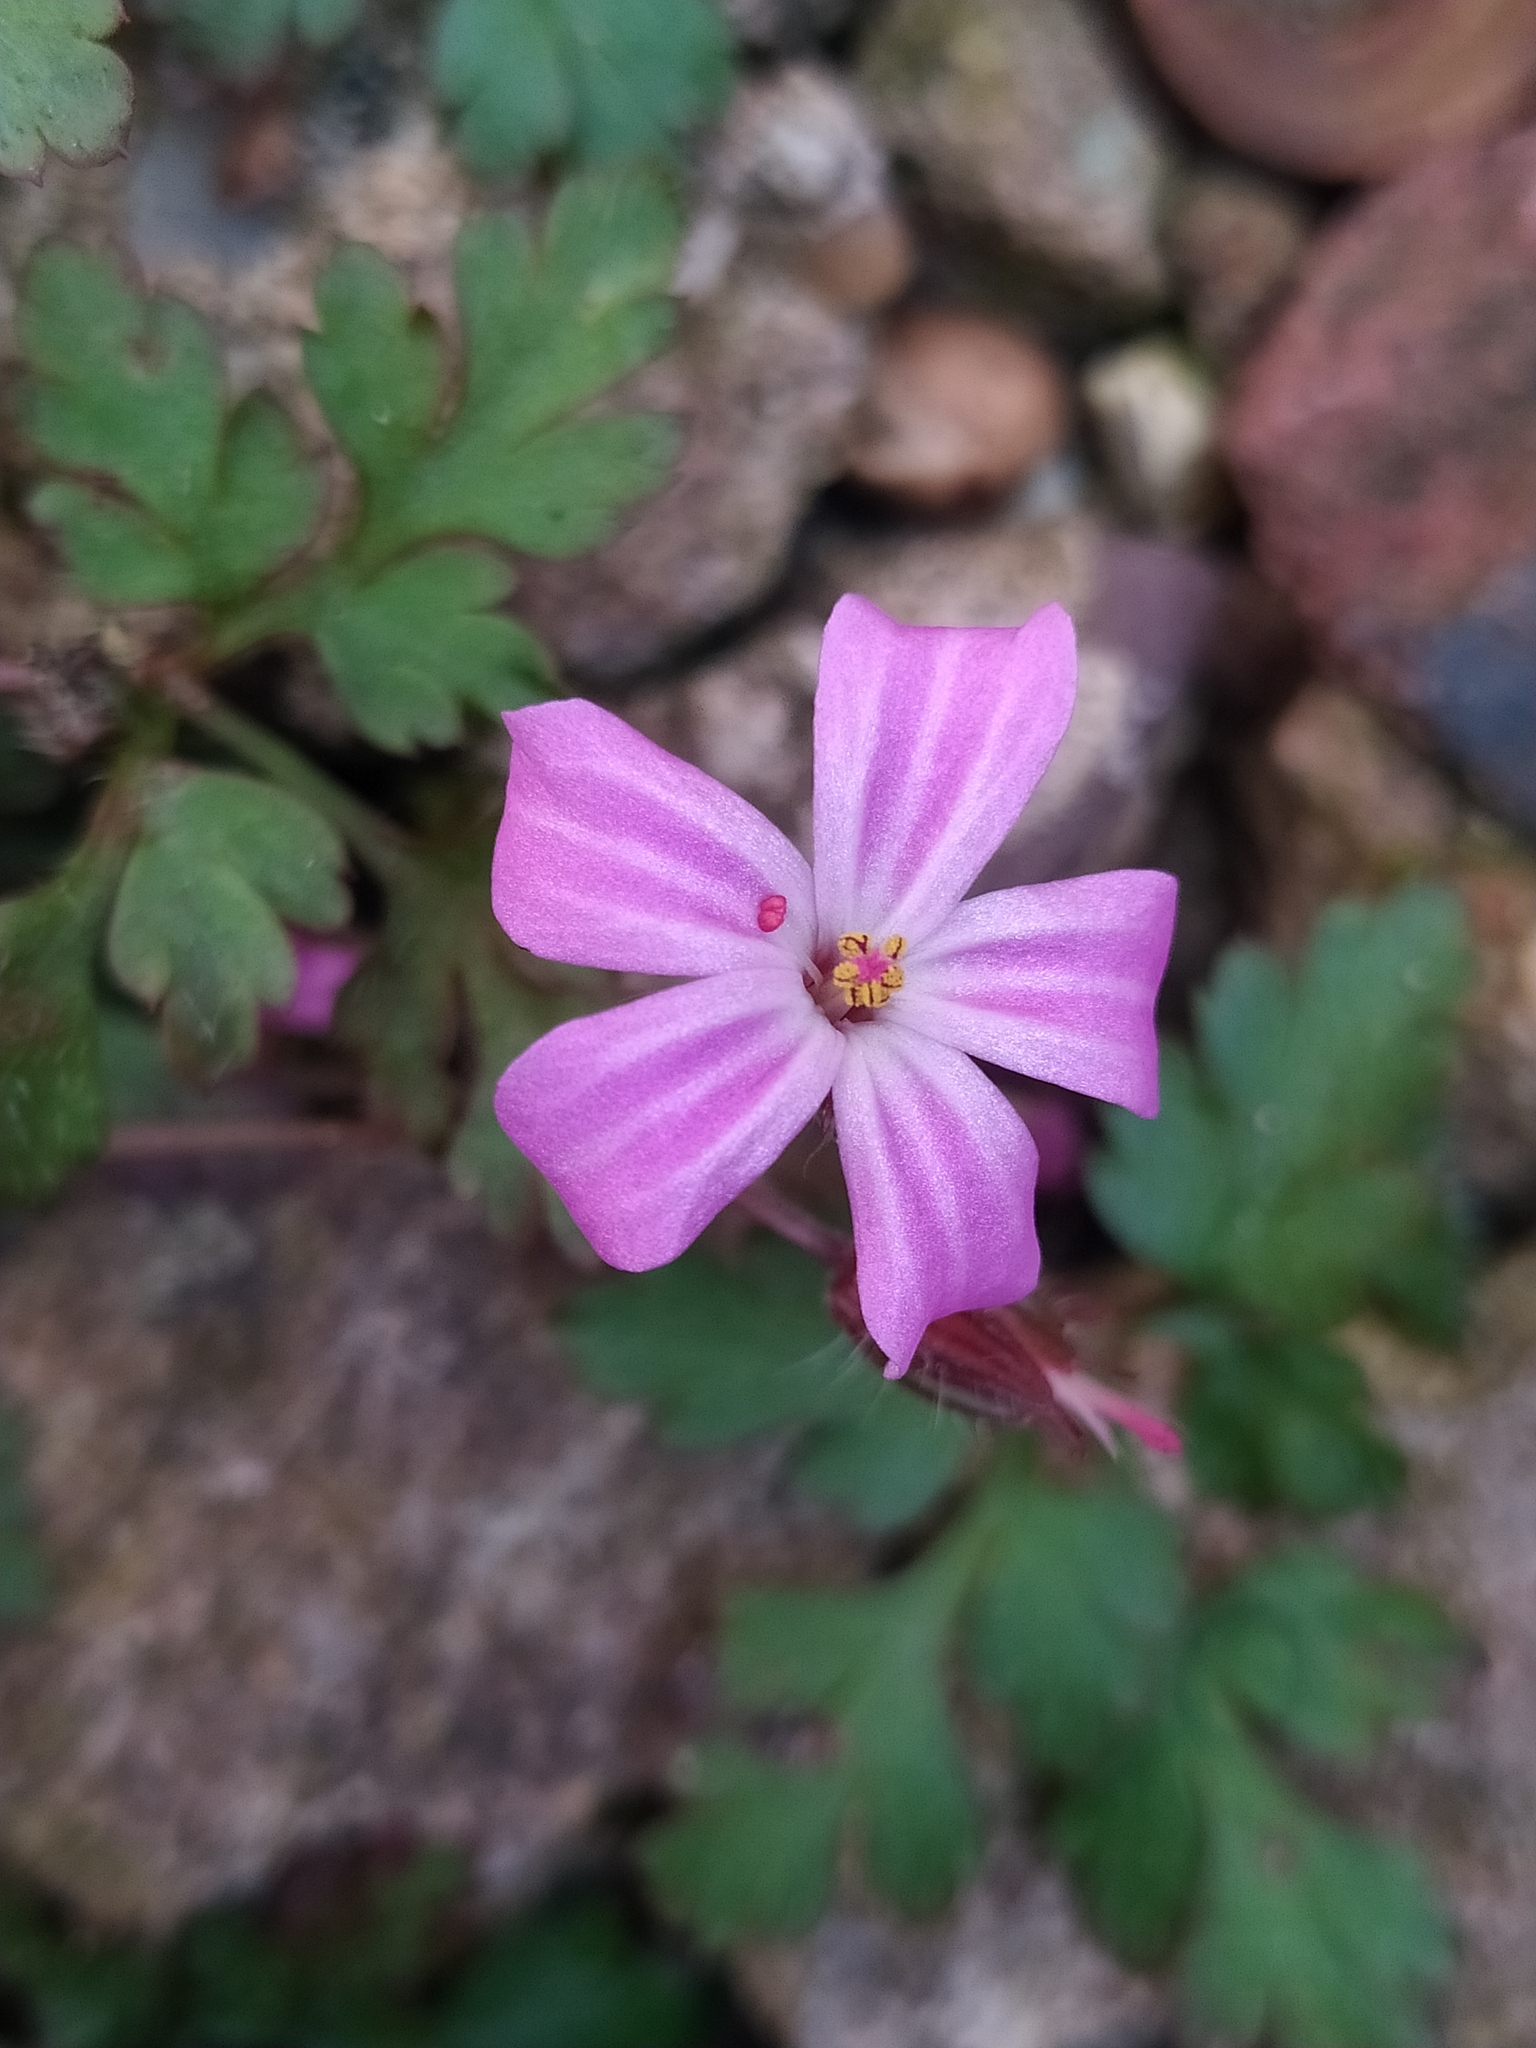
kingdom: Plantae
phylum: Tracheophyta
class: Magnoliopsida
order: Geraniales
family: Geraniaceae
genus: Geranium
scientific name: Geranium robertianum
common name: Herb-robert
